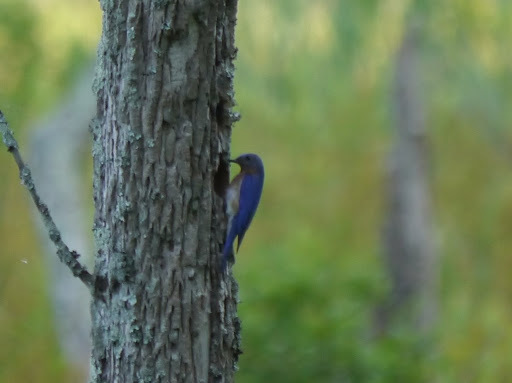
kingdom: Animalia
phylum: Chordata
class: Aves
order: Passeriformes
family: Turdidae
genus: Sialia
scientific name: Sialia sialis
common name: Eastern bluebird
